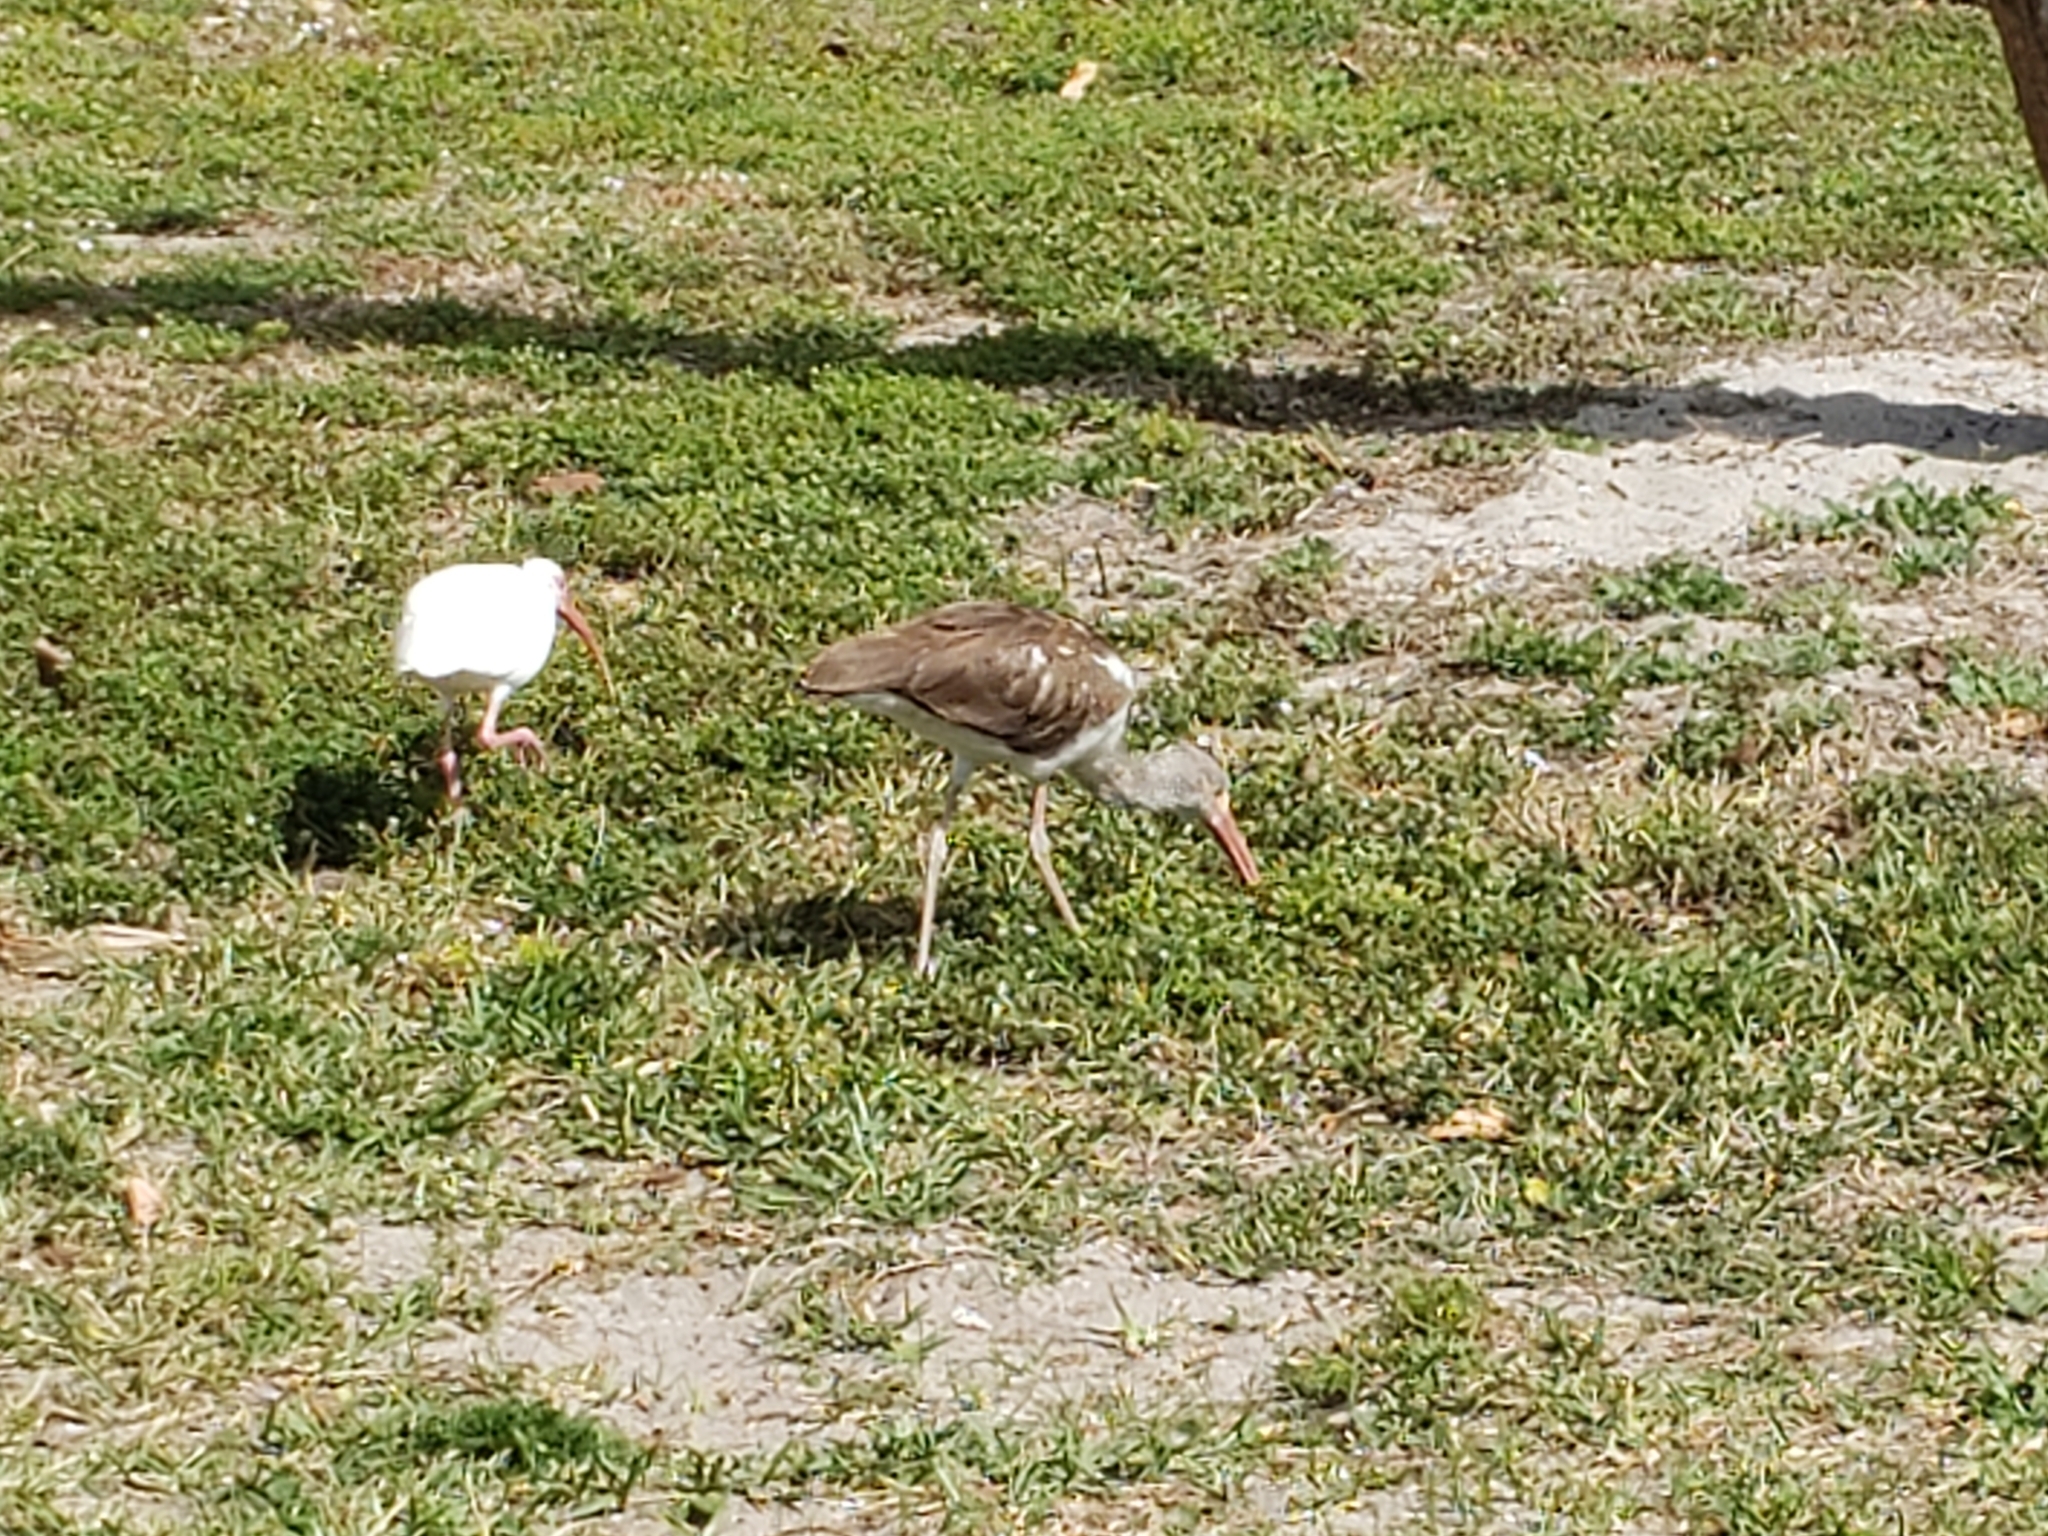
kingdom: Animalia
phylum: Chordata
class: Aves
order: Pelecaniformes
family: Threskiornithidae
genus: Eudocimus
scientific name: Eudocimus albus
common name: White ibis
